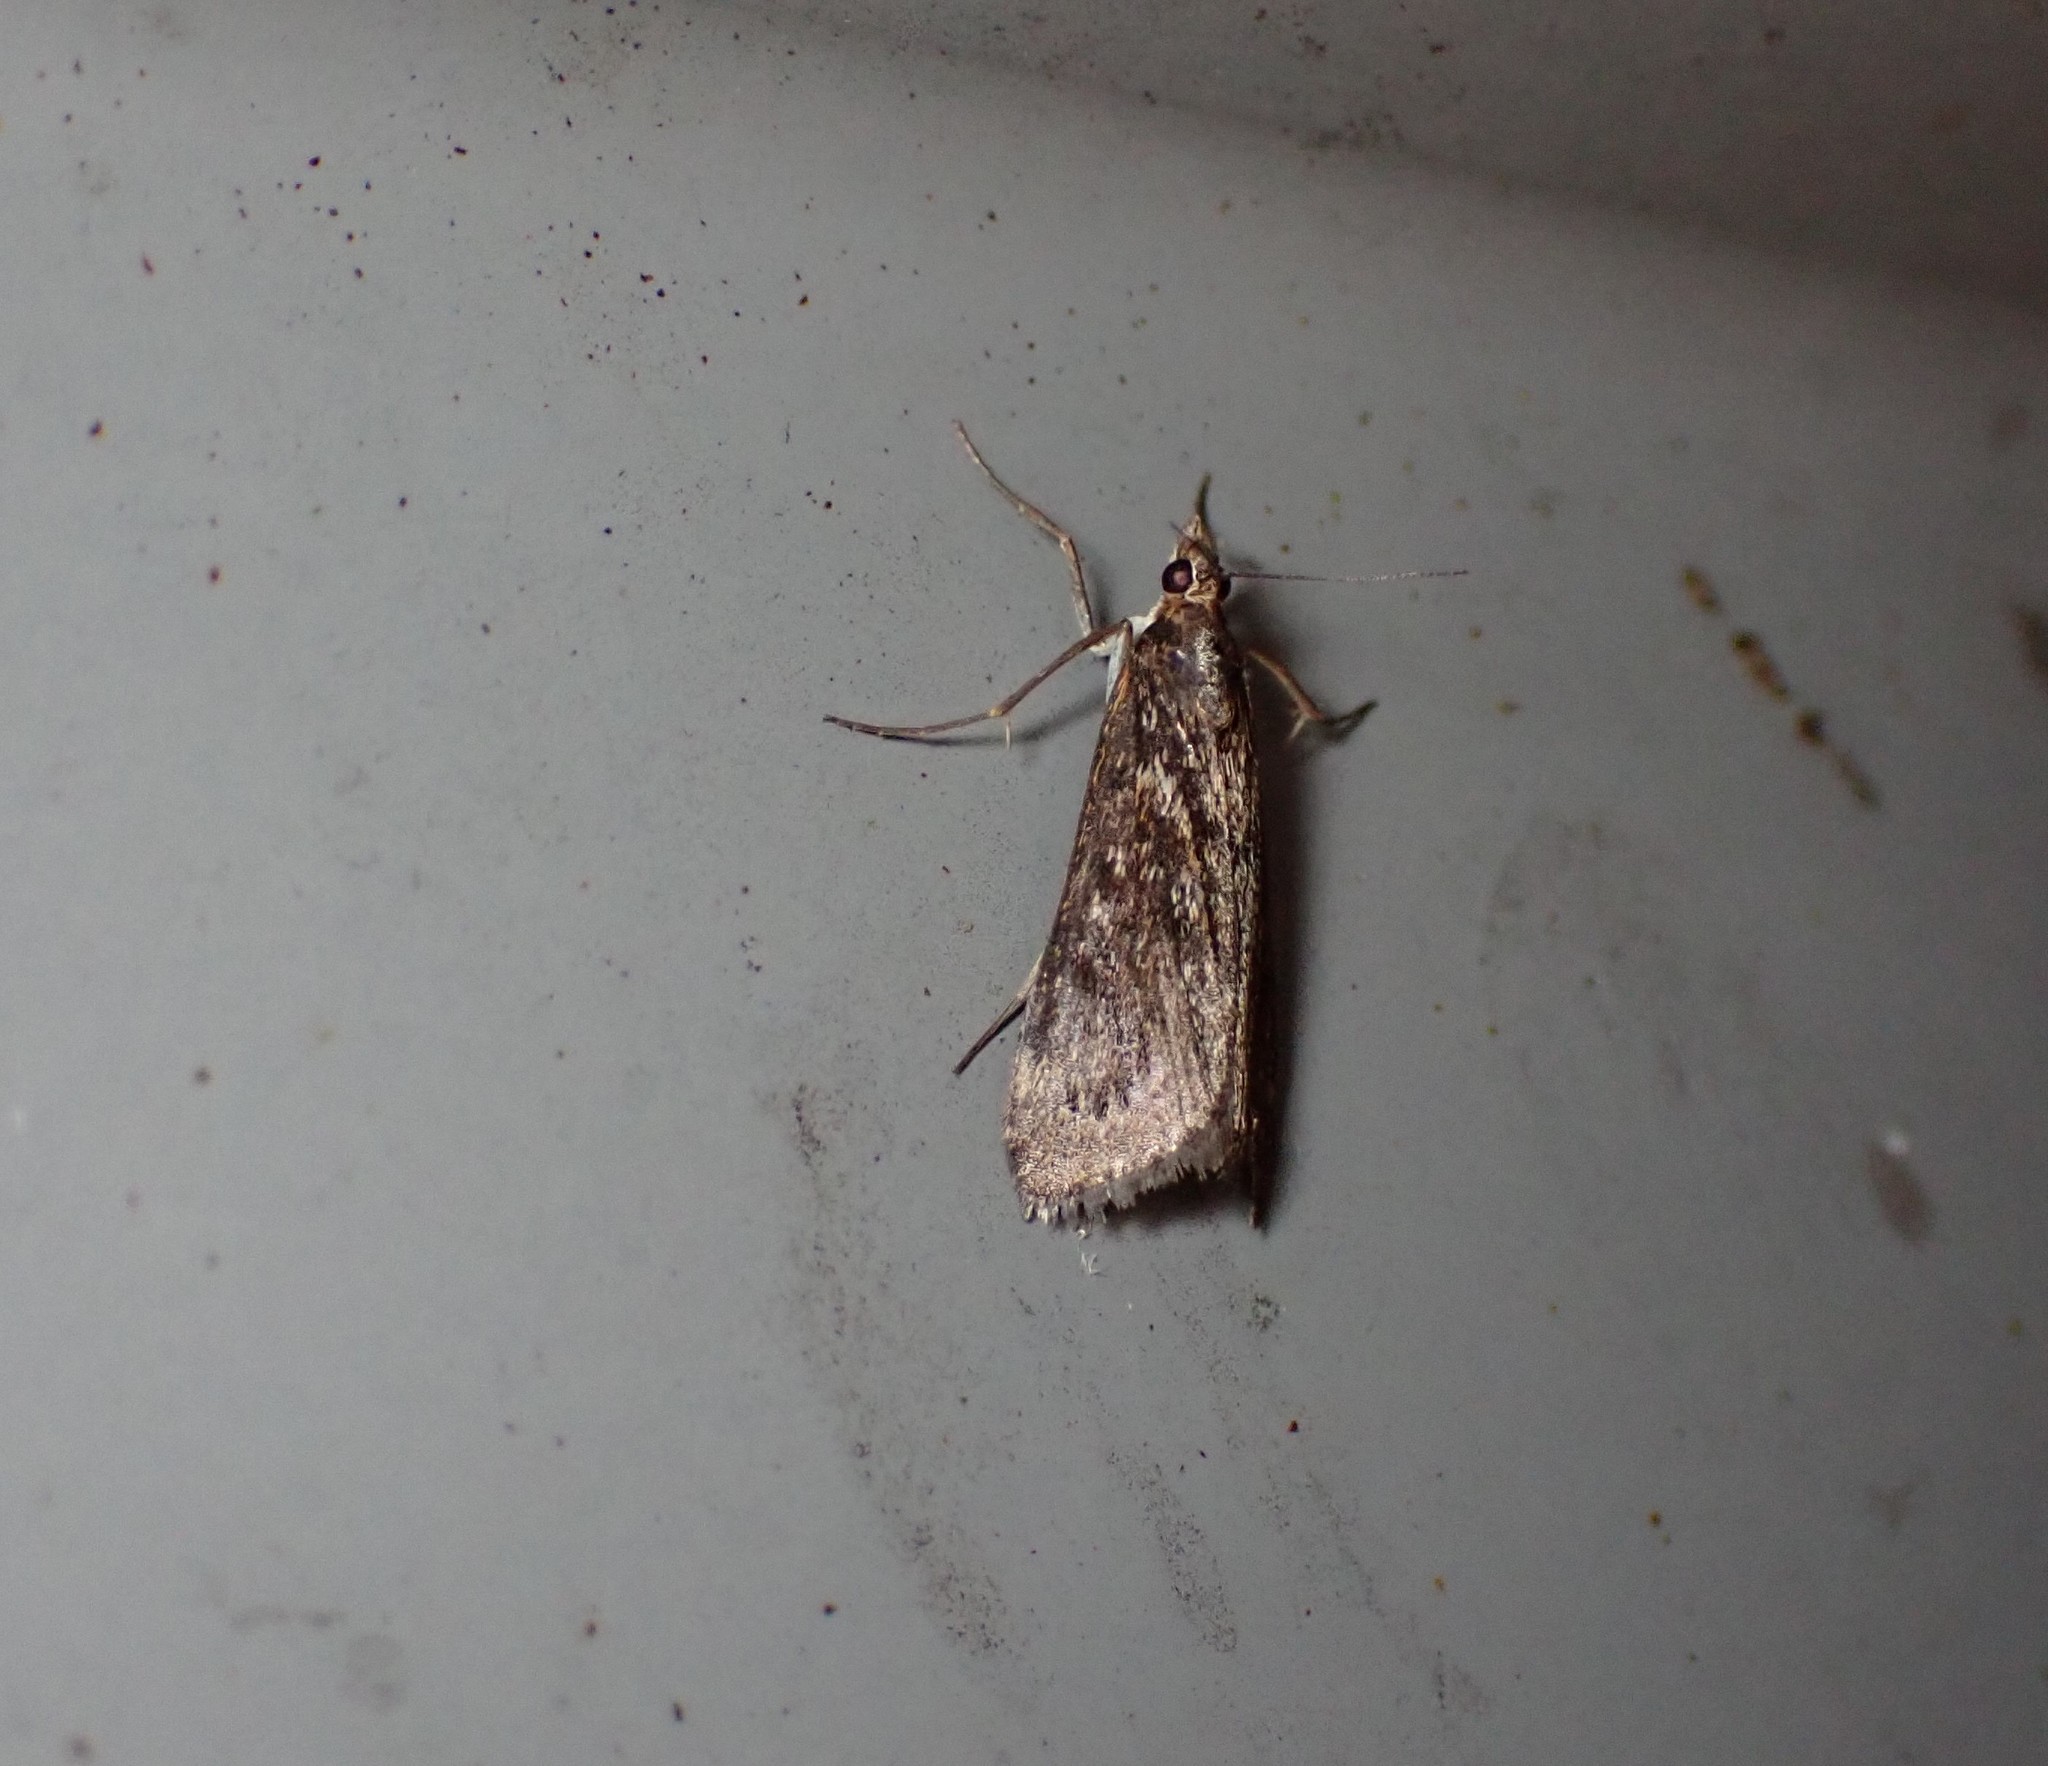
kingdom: Animalia
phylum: Arthropoda
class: Insecta
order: Lepidoptera
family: Crambidae
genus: Achyra
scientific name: Achyra affinitalis
